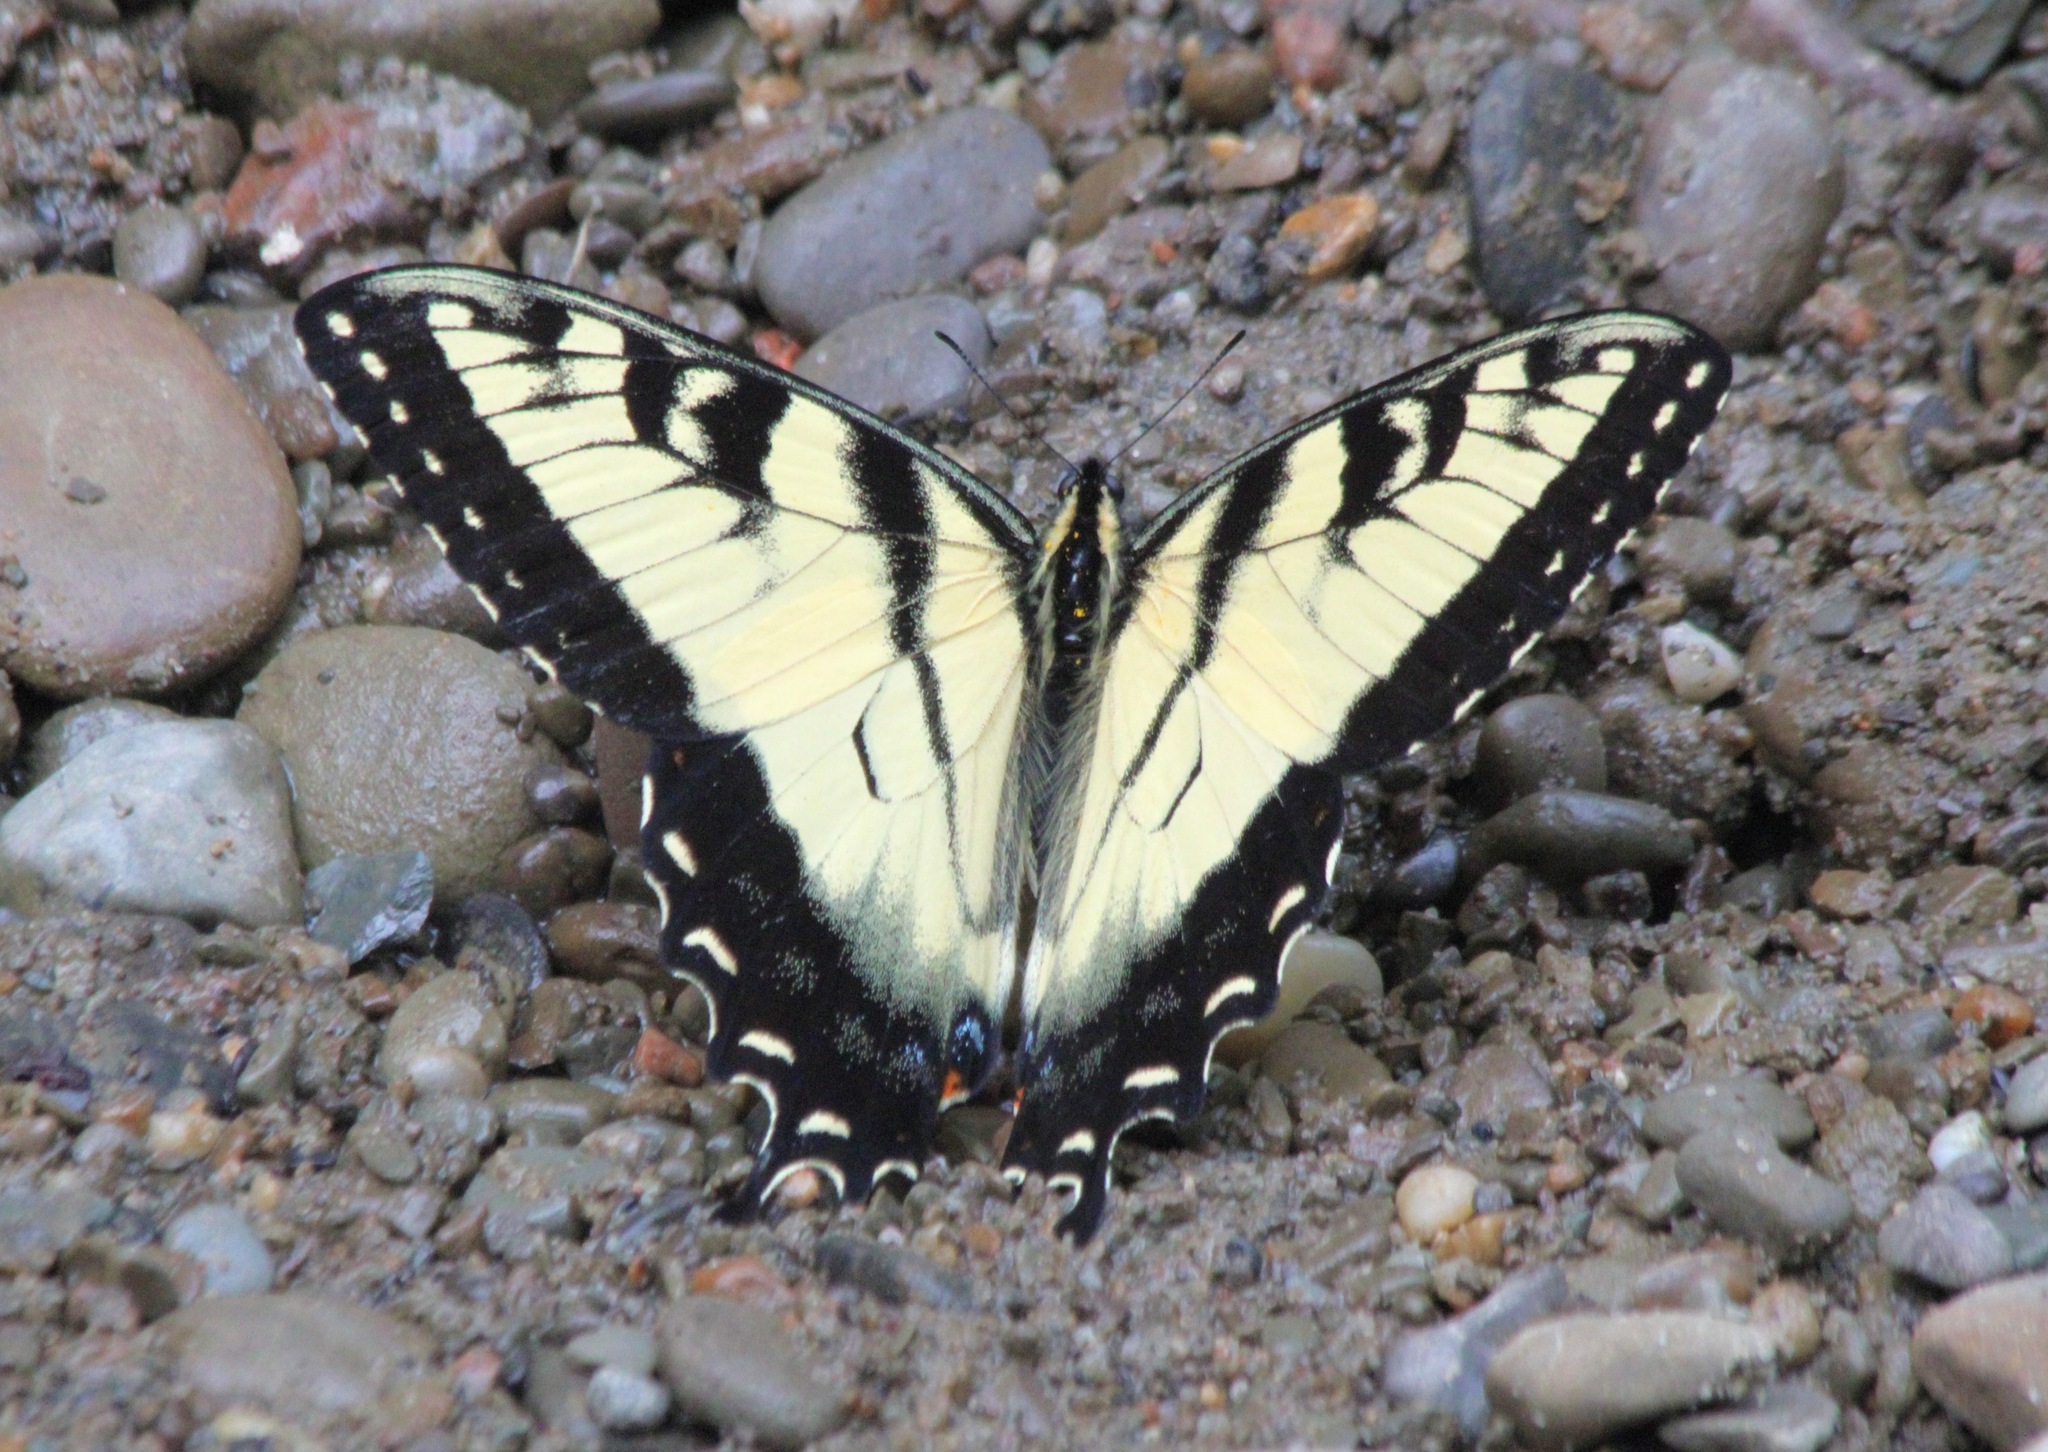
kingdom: Animalia
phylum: Arthropoda
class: Insecta
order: Lepidoptera
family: Papilionidae
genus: Papilio
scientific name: Papilio glaucus
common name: Tiger swallowtail
